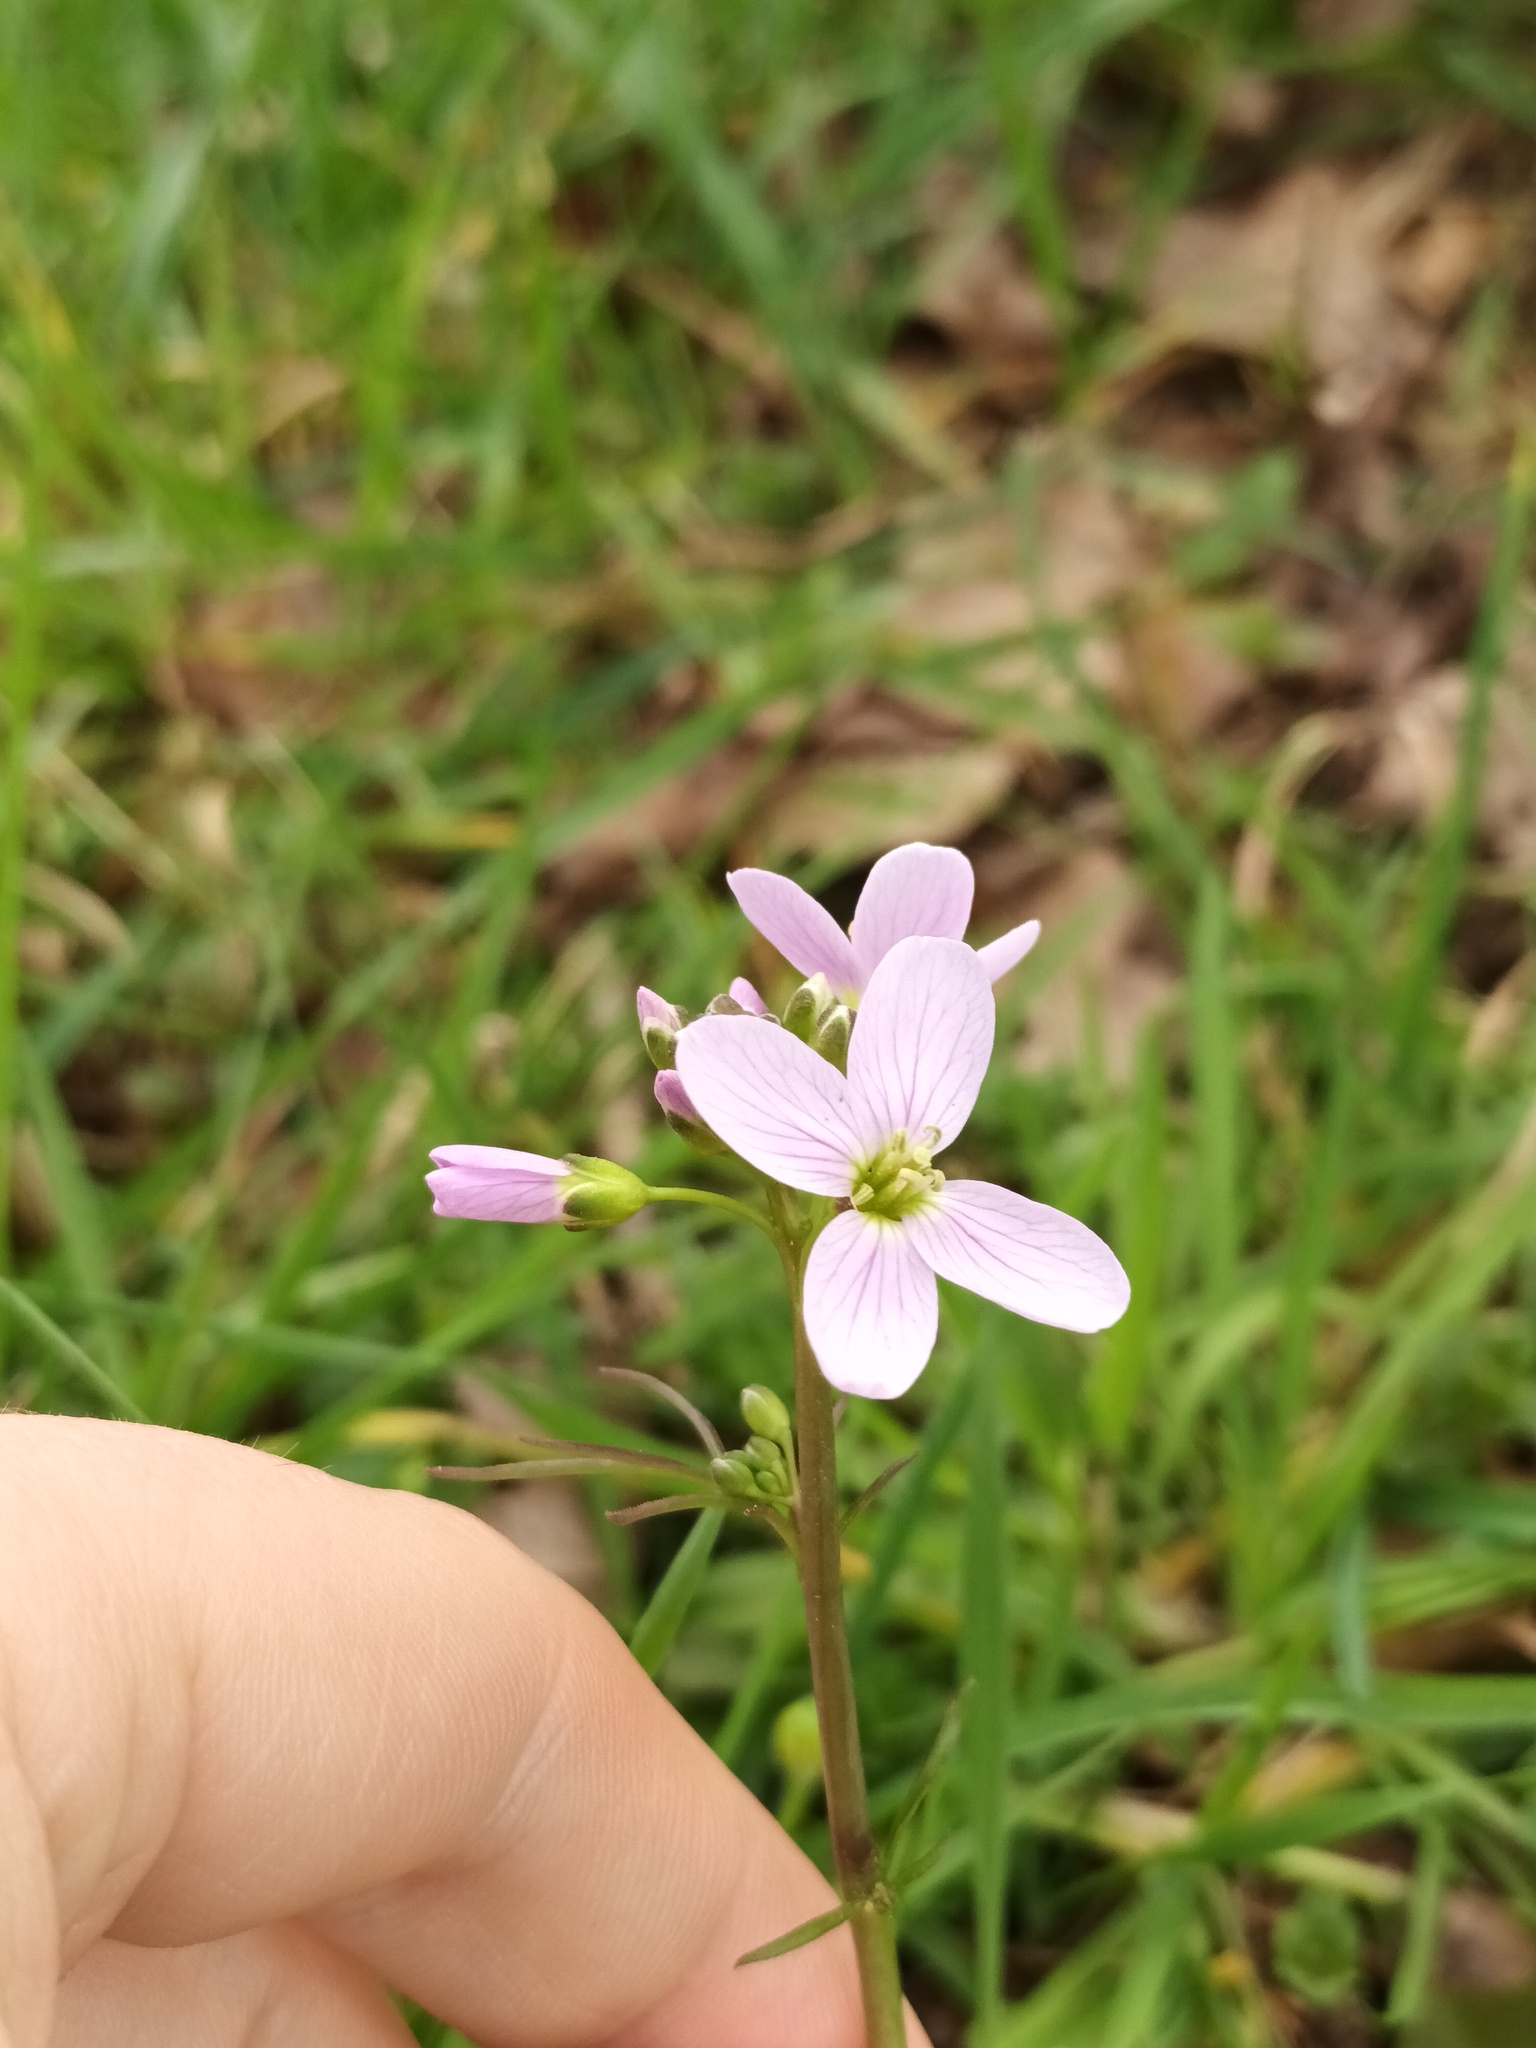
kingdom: Plantae
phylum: Tracheophyta
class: Magnoliopsida
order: Brassicales
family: Brassicaceae
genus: Cardamine
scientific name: Cardamine pratensis
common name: Cuckoo flower
